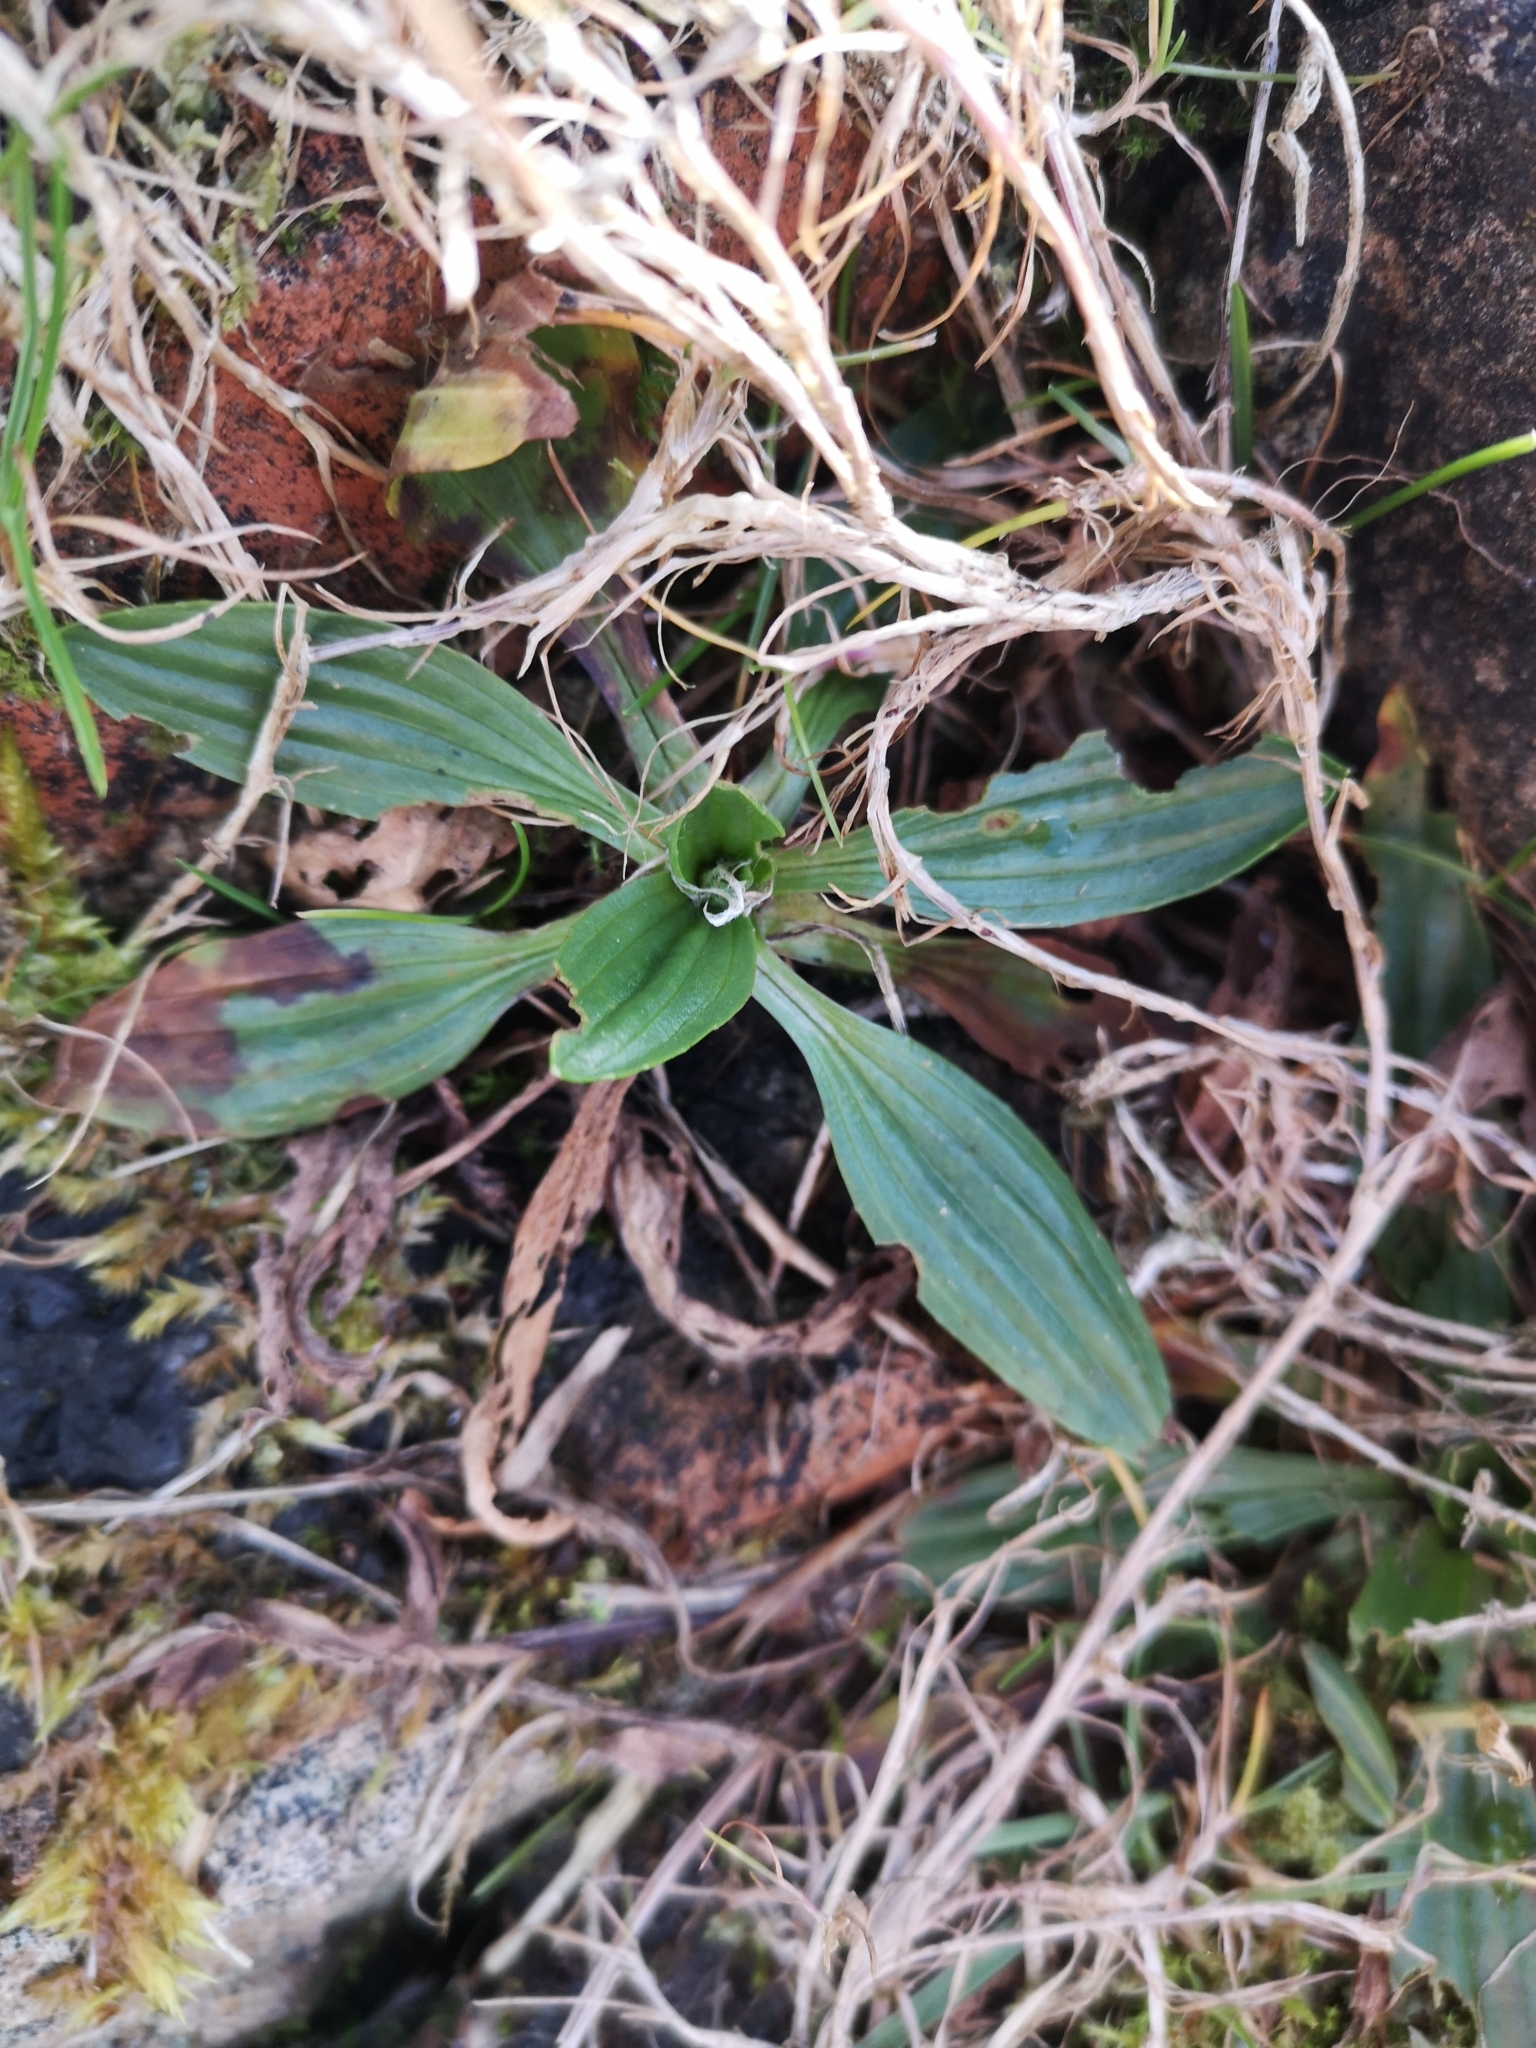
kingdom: Plantae
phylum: Tracheophyta
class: Magnoliopsida
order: Lamiales
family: Plantaginaceae
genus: Plantago
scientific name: Plantago lanceolata
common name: Ribwort plantain
